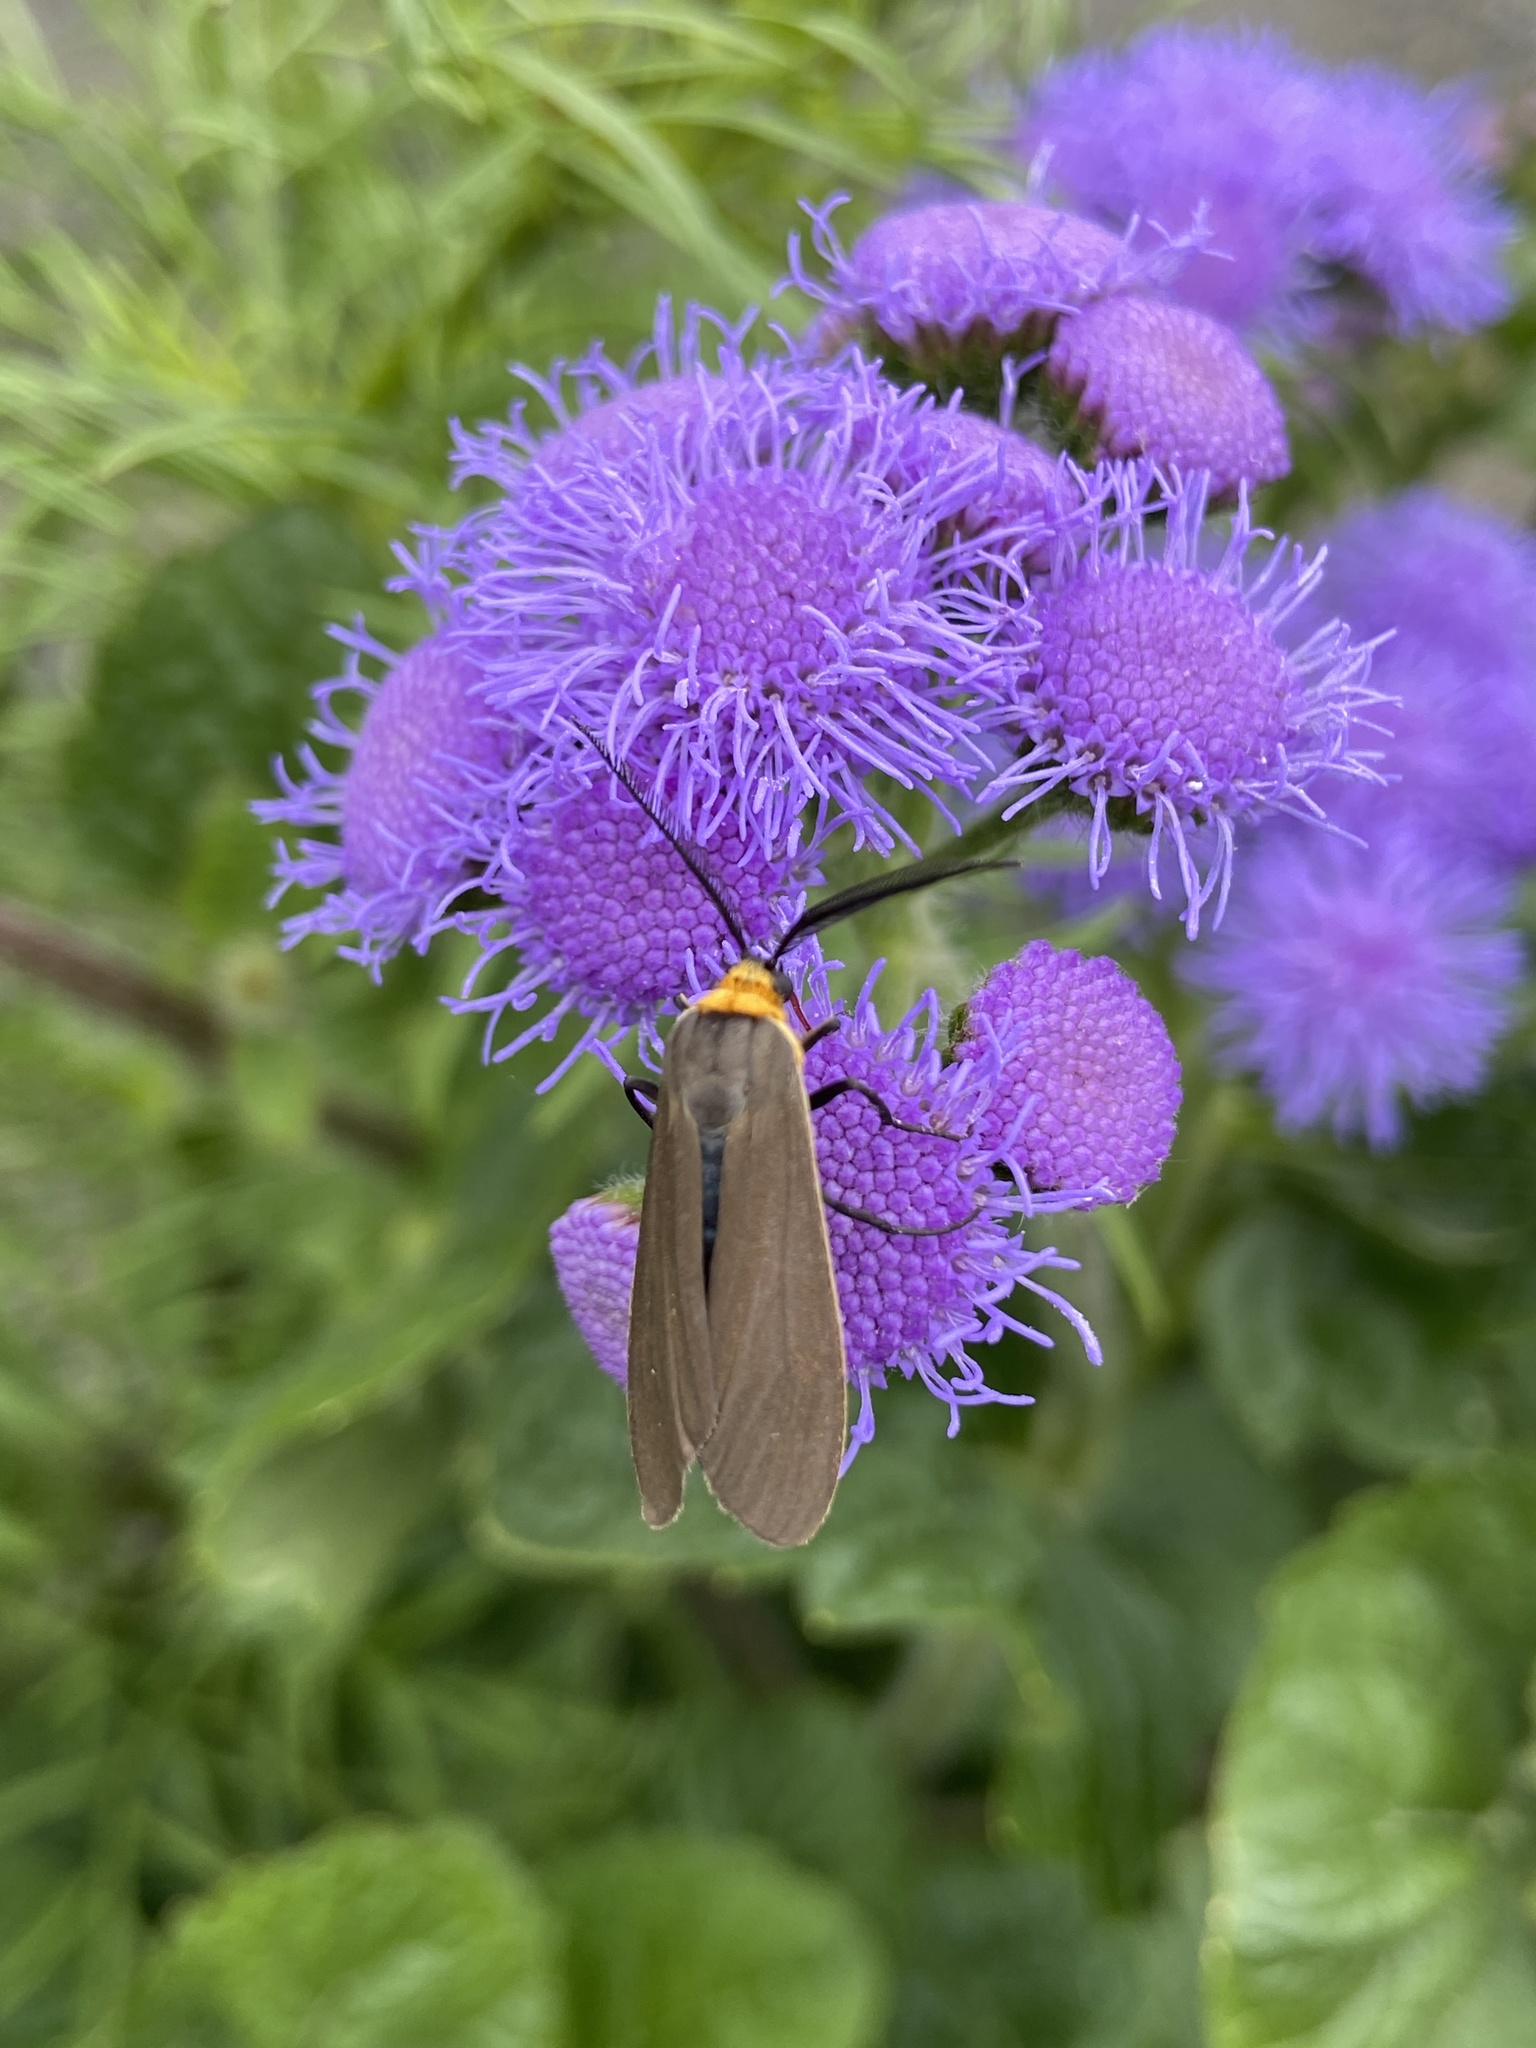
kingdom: Animalia
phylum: Arthropoda
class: Insecta
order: Lepidoptera
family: Erebidae
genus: Cisseps
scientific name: Cisseps fulvicollis
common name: Yellow-collared scape moth
